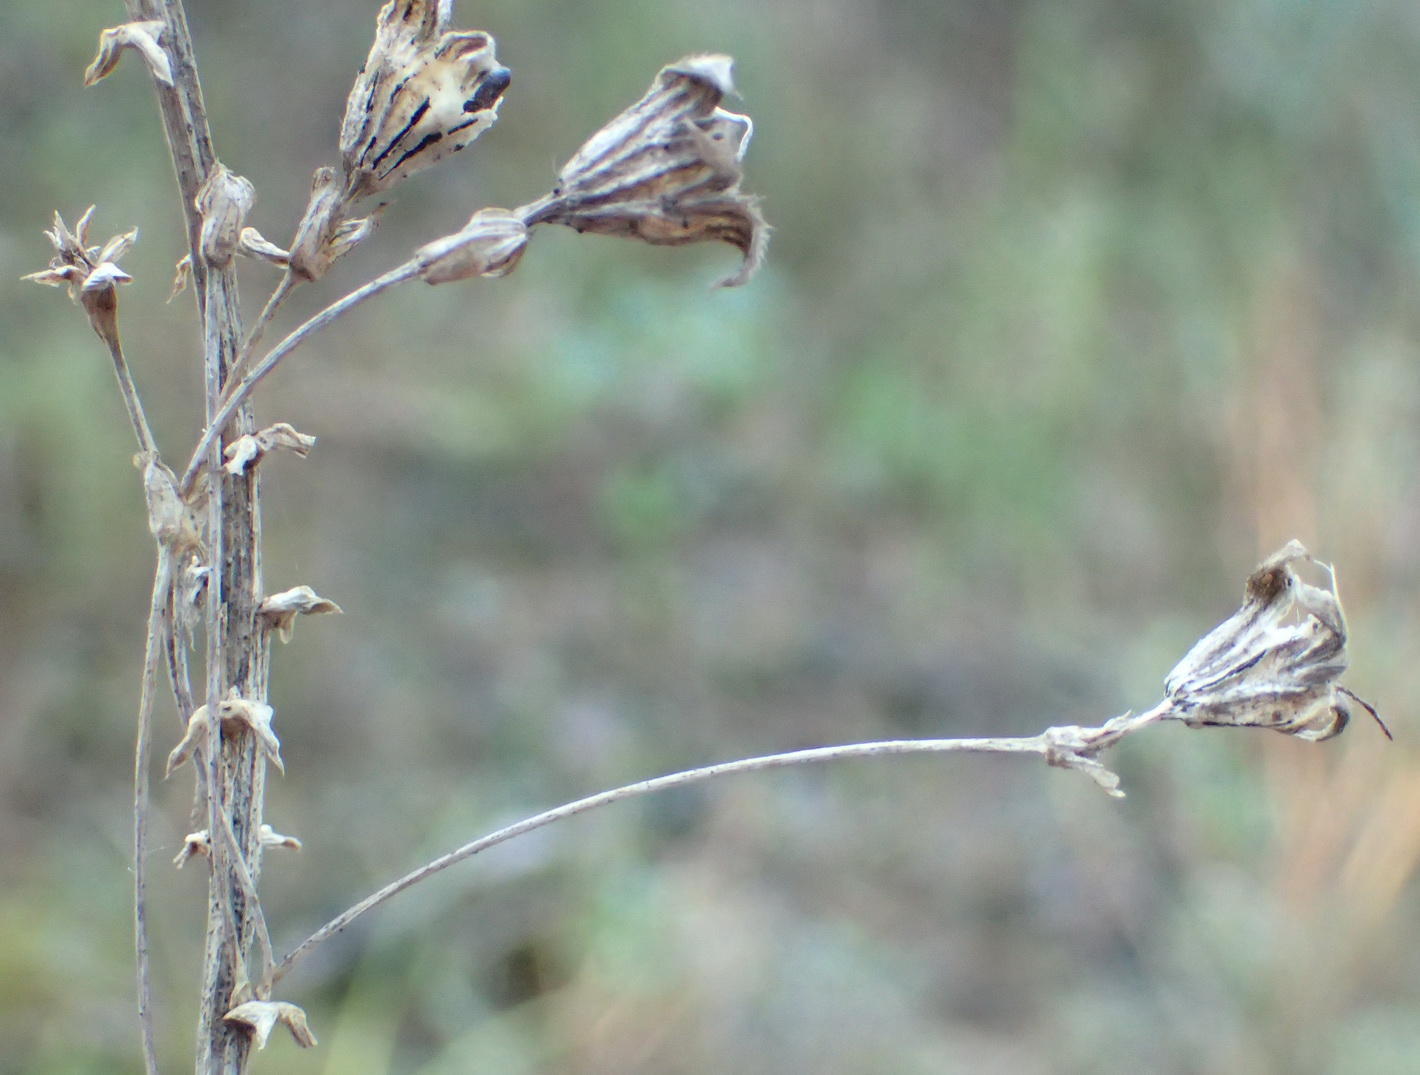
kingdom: Plantae
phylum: Tracheophyta
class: Magnoliopsida
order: Fabales
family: Fabaceae
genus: Psoralea
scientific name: Psoralea affinis
